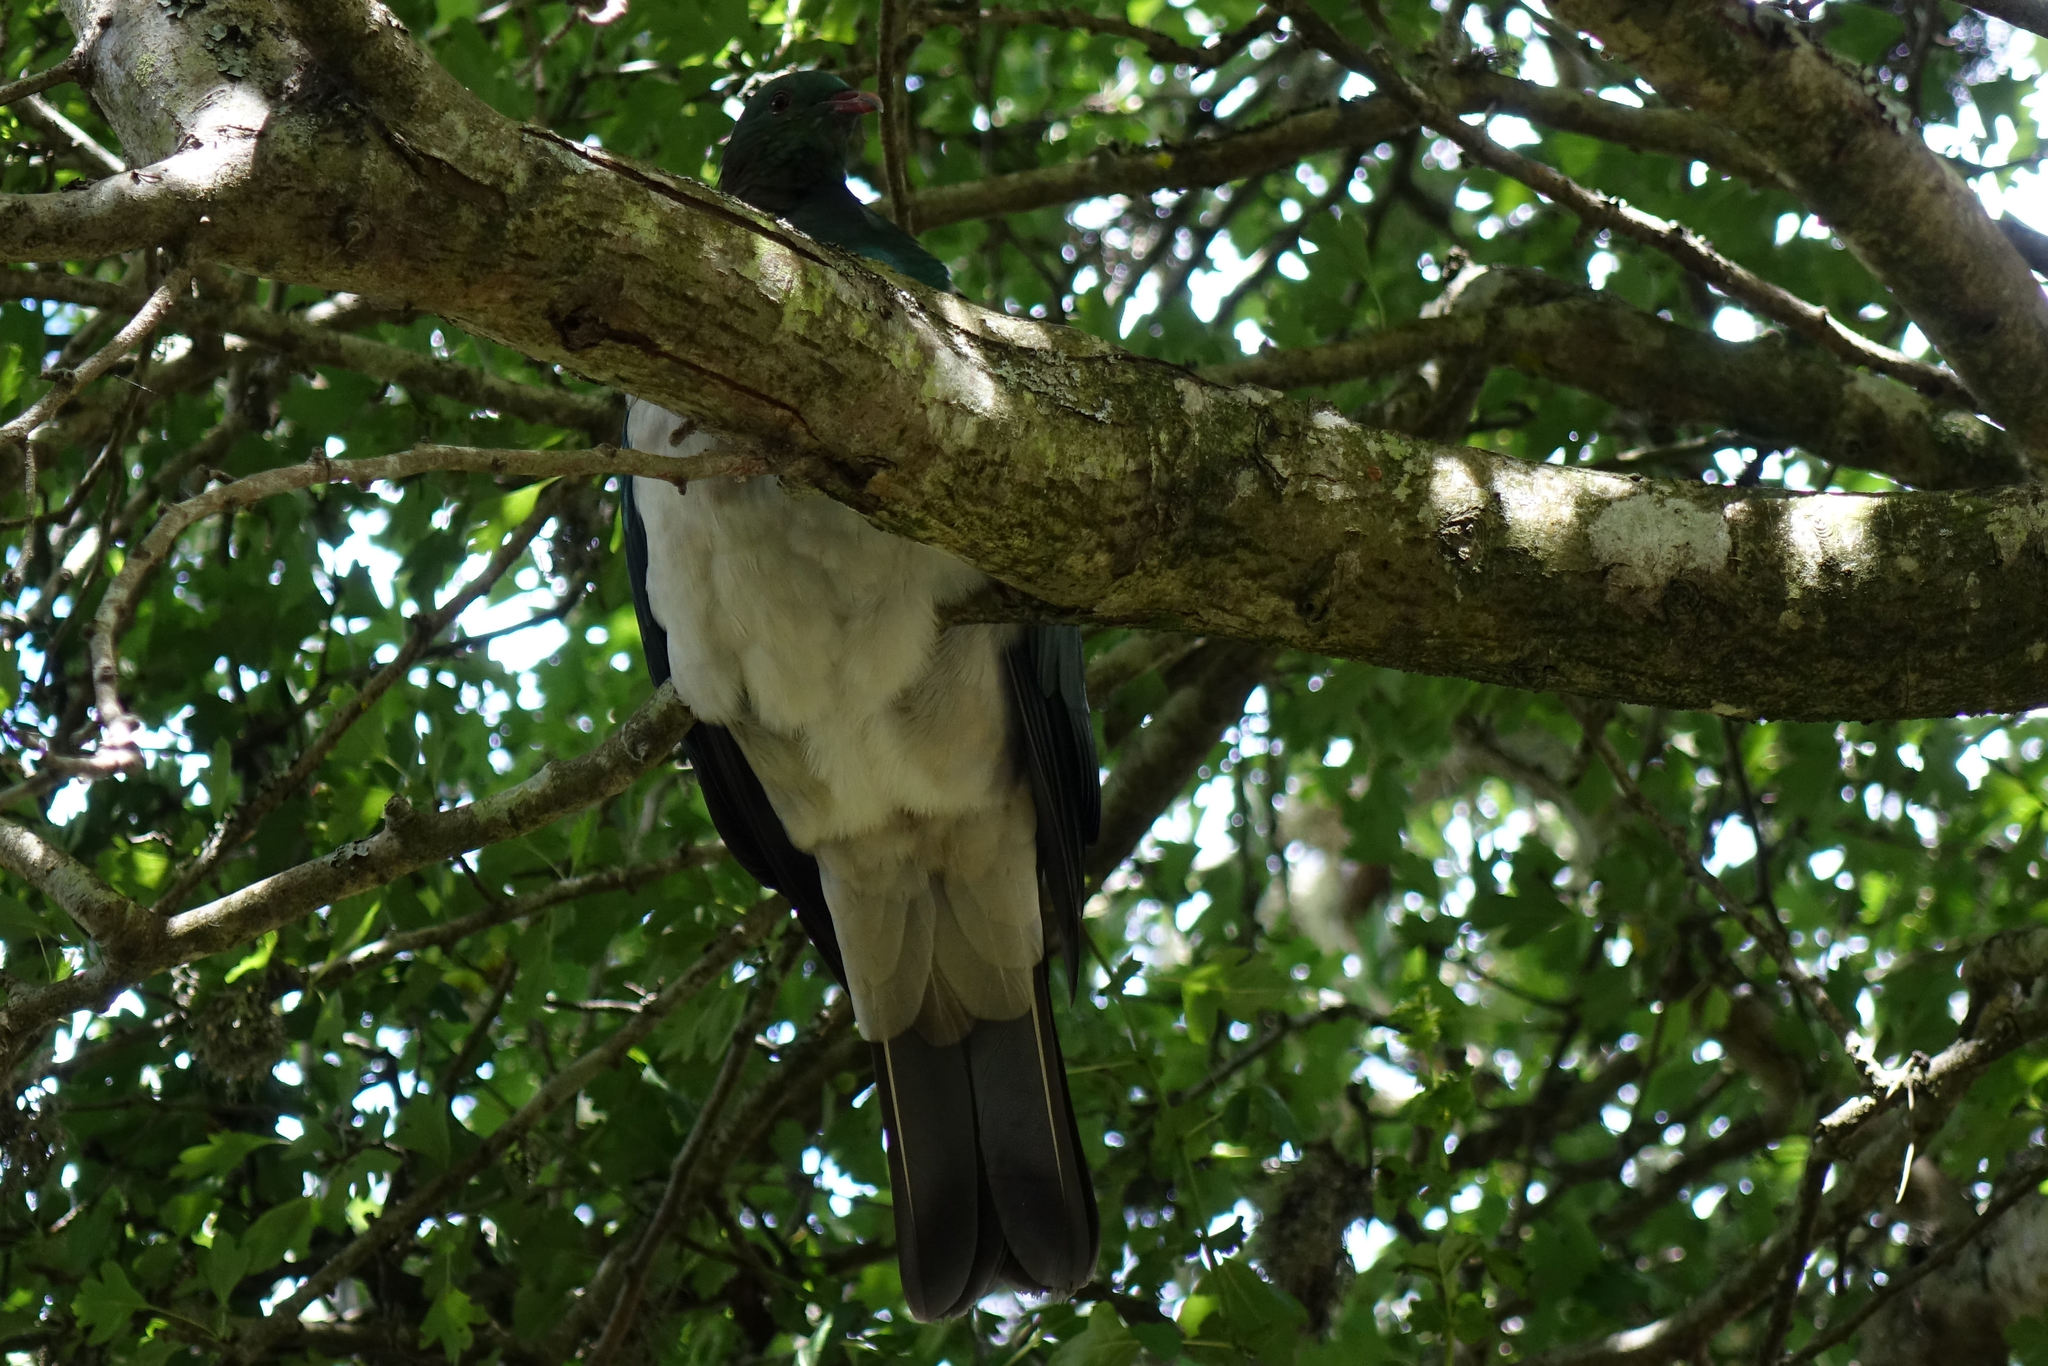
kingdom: Animalia
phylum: Chordata
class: Aves
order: Columbiformes
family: Columbidae
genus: Hemiphaga
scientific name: Hemiphaga novaeseelandiae
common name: New zealand pigeon
